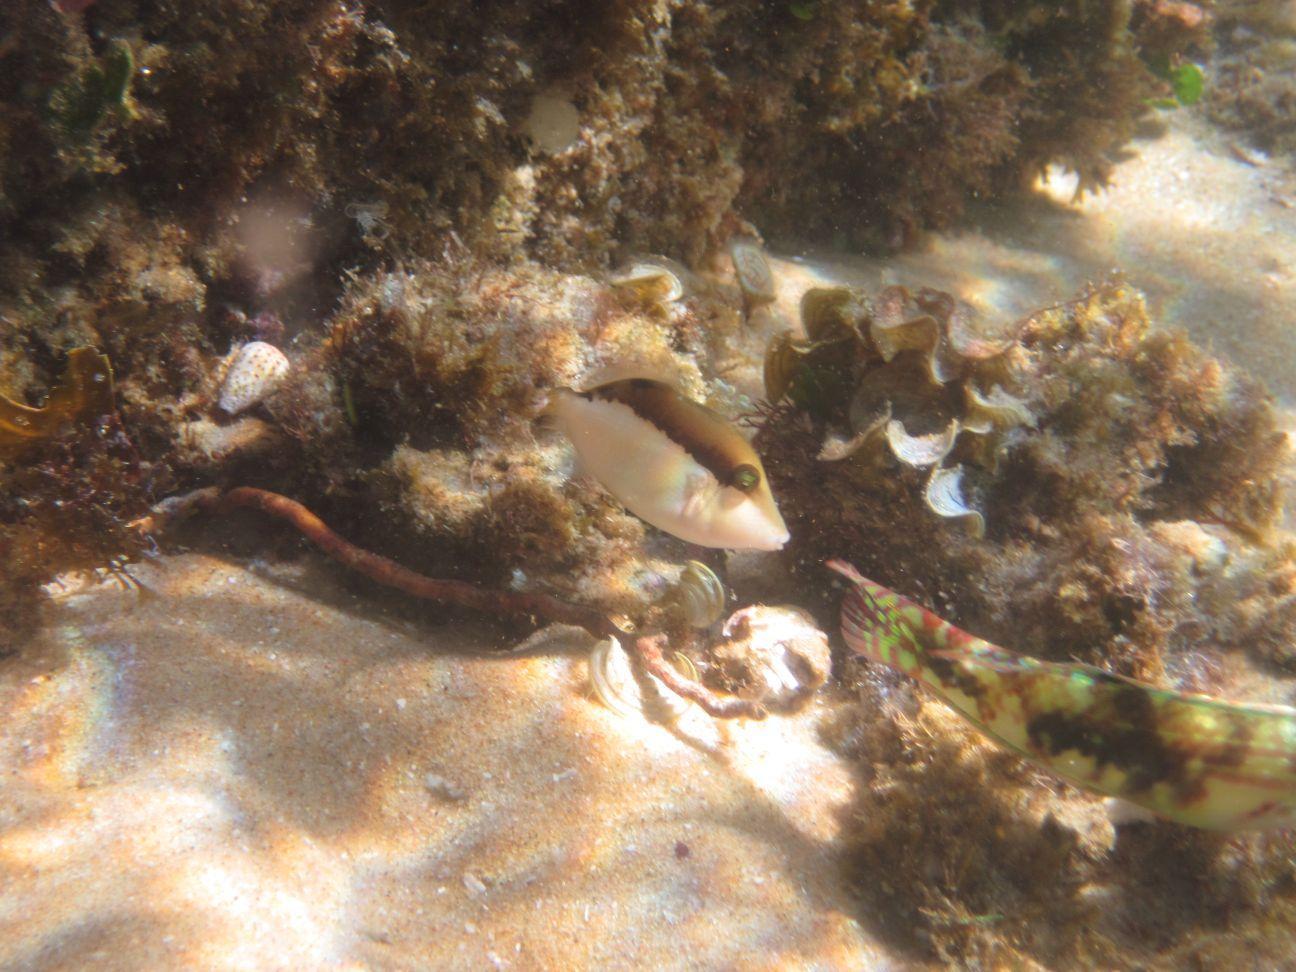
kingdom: Animalia
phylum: Chordata
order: Tetraodontiformes
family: Balistidae
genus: Sufflamen
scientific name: Sufflamen chrysopterum
